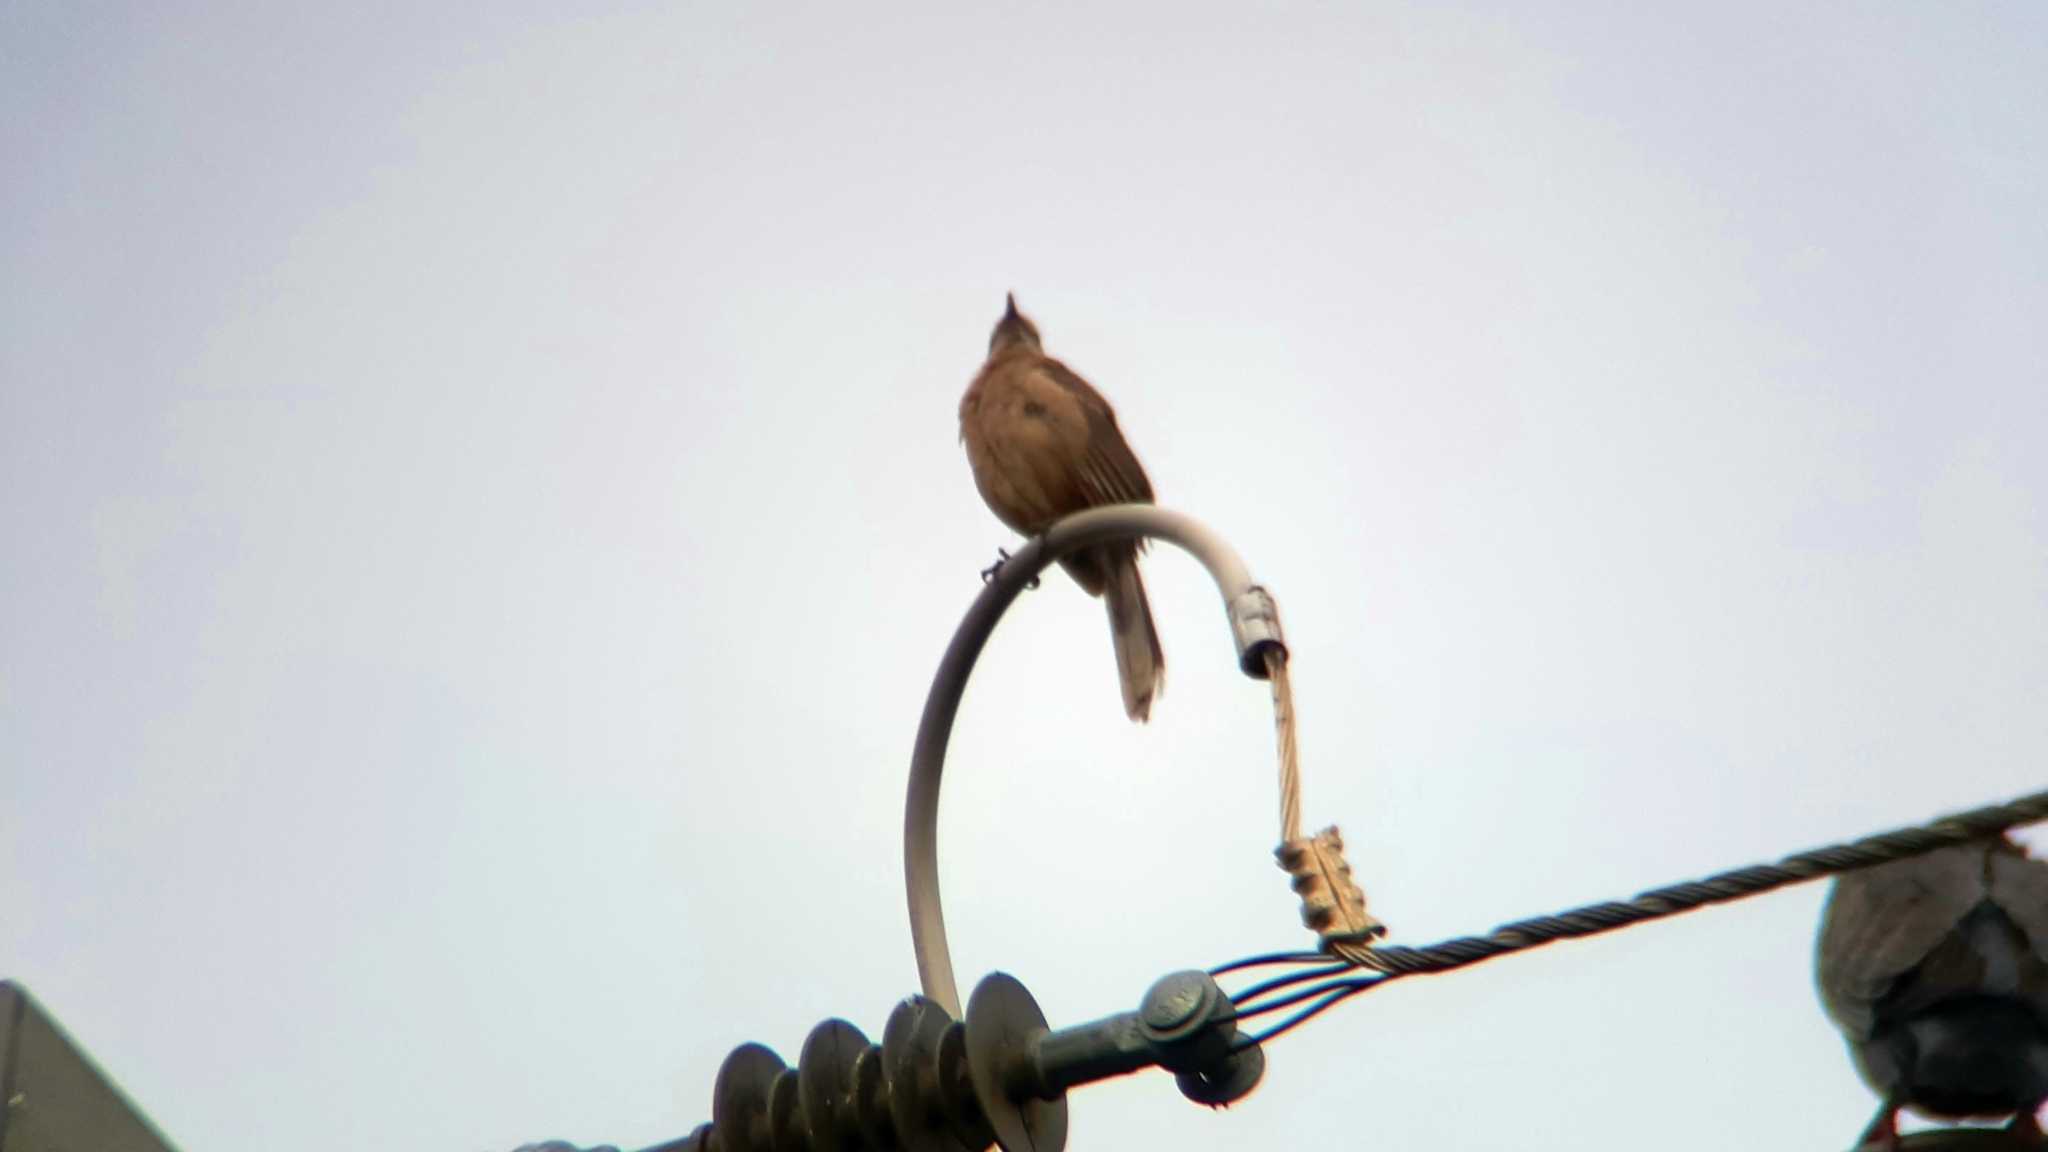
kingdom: Animalia
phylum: Chordata
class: Aves
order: Passeriformes
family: Mimidae
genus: Mimus
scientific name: Mimus saturninus
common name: Chalk-browed mockingbird
